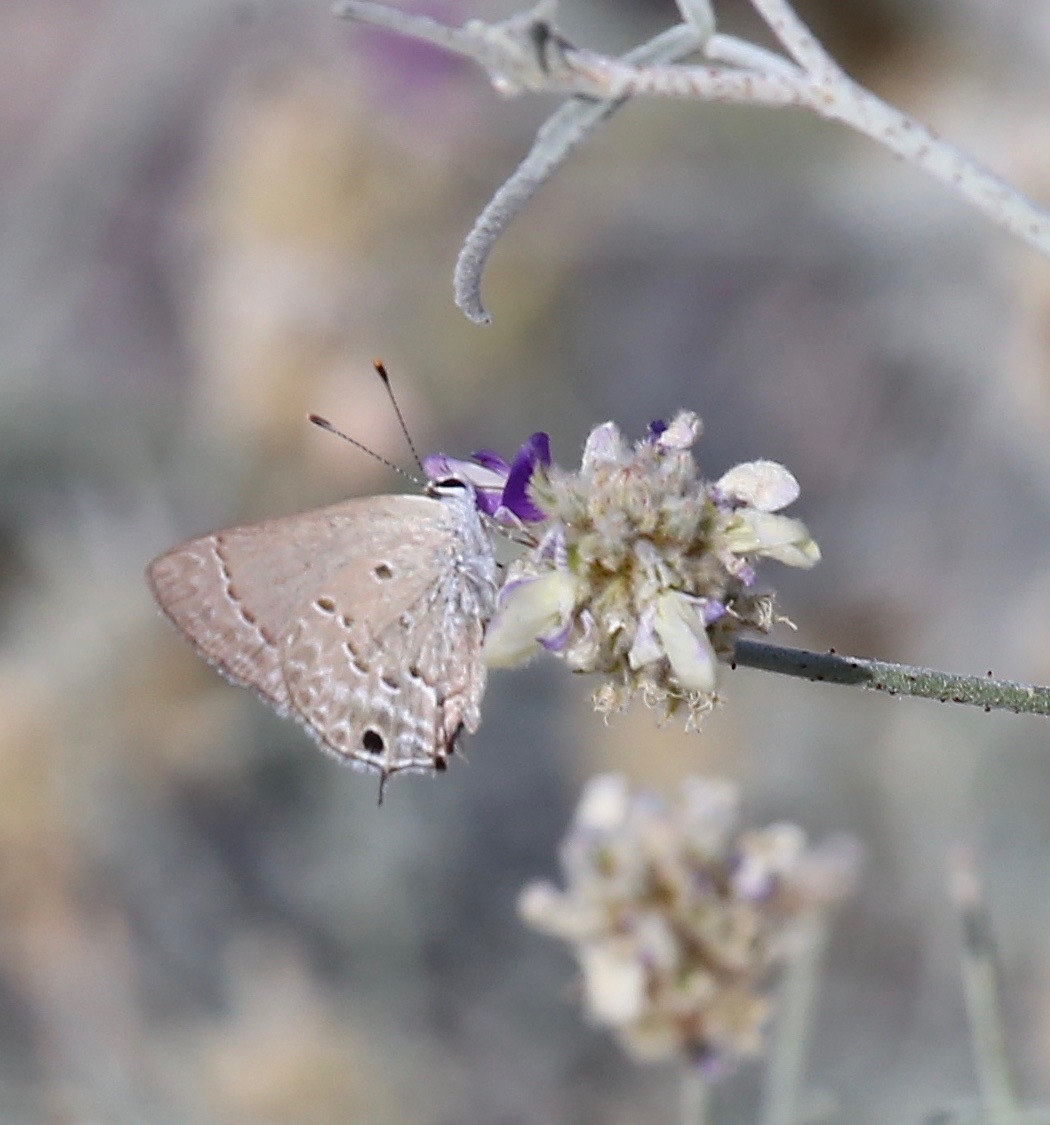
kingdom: Animalia
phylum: Arthropoda
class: Insecta
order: Lepidoptera
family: Lycaenidae
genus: Callicista
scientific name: Callicista columella
